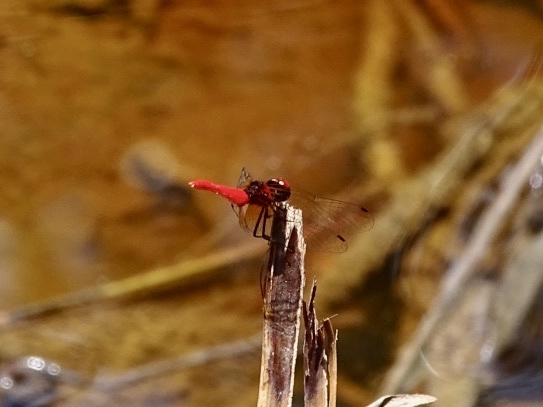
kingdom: Animalia
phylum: Arthropoda
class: Insecta
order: Odonata
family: Libellulidae
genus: Nannophya
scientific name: Nannophya pygmaea
